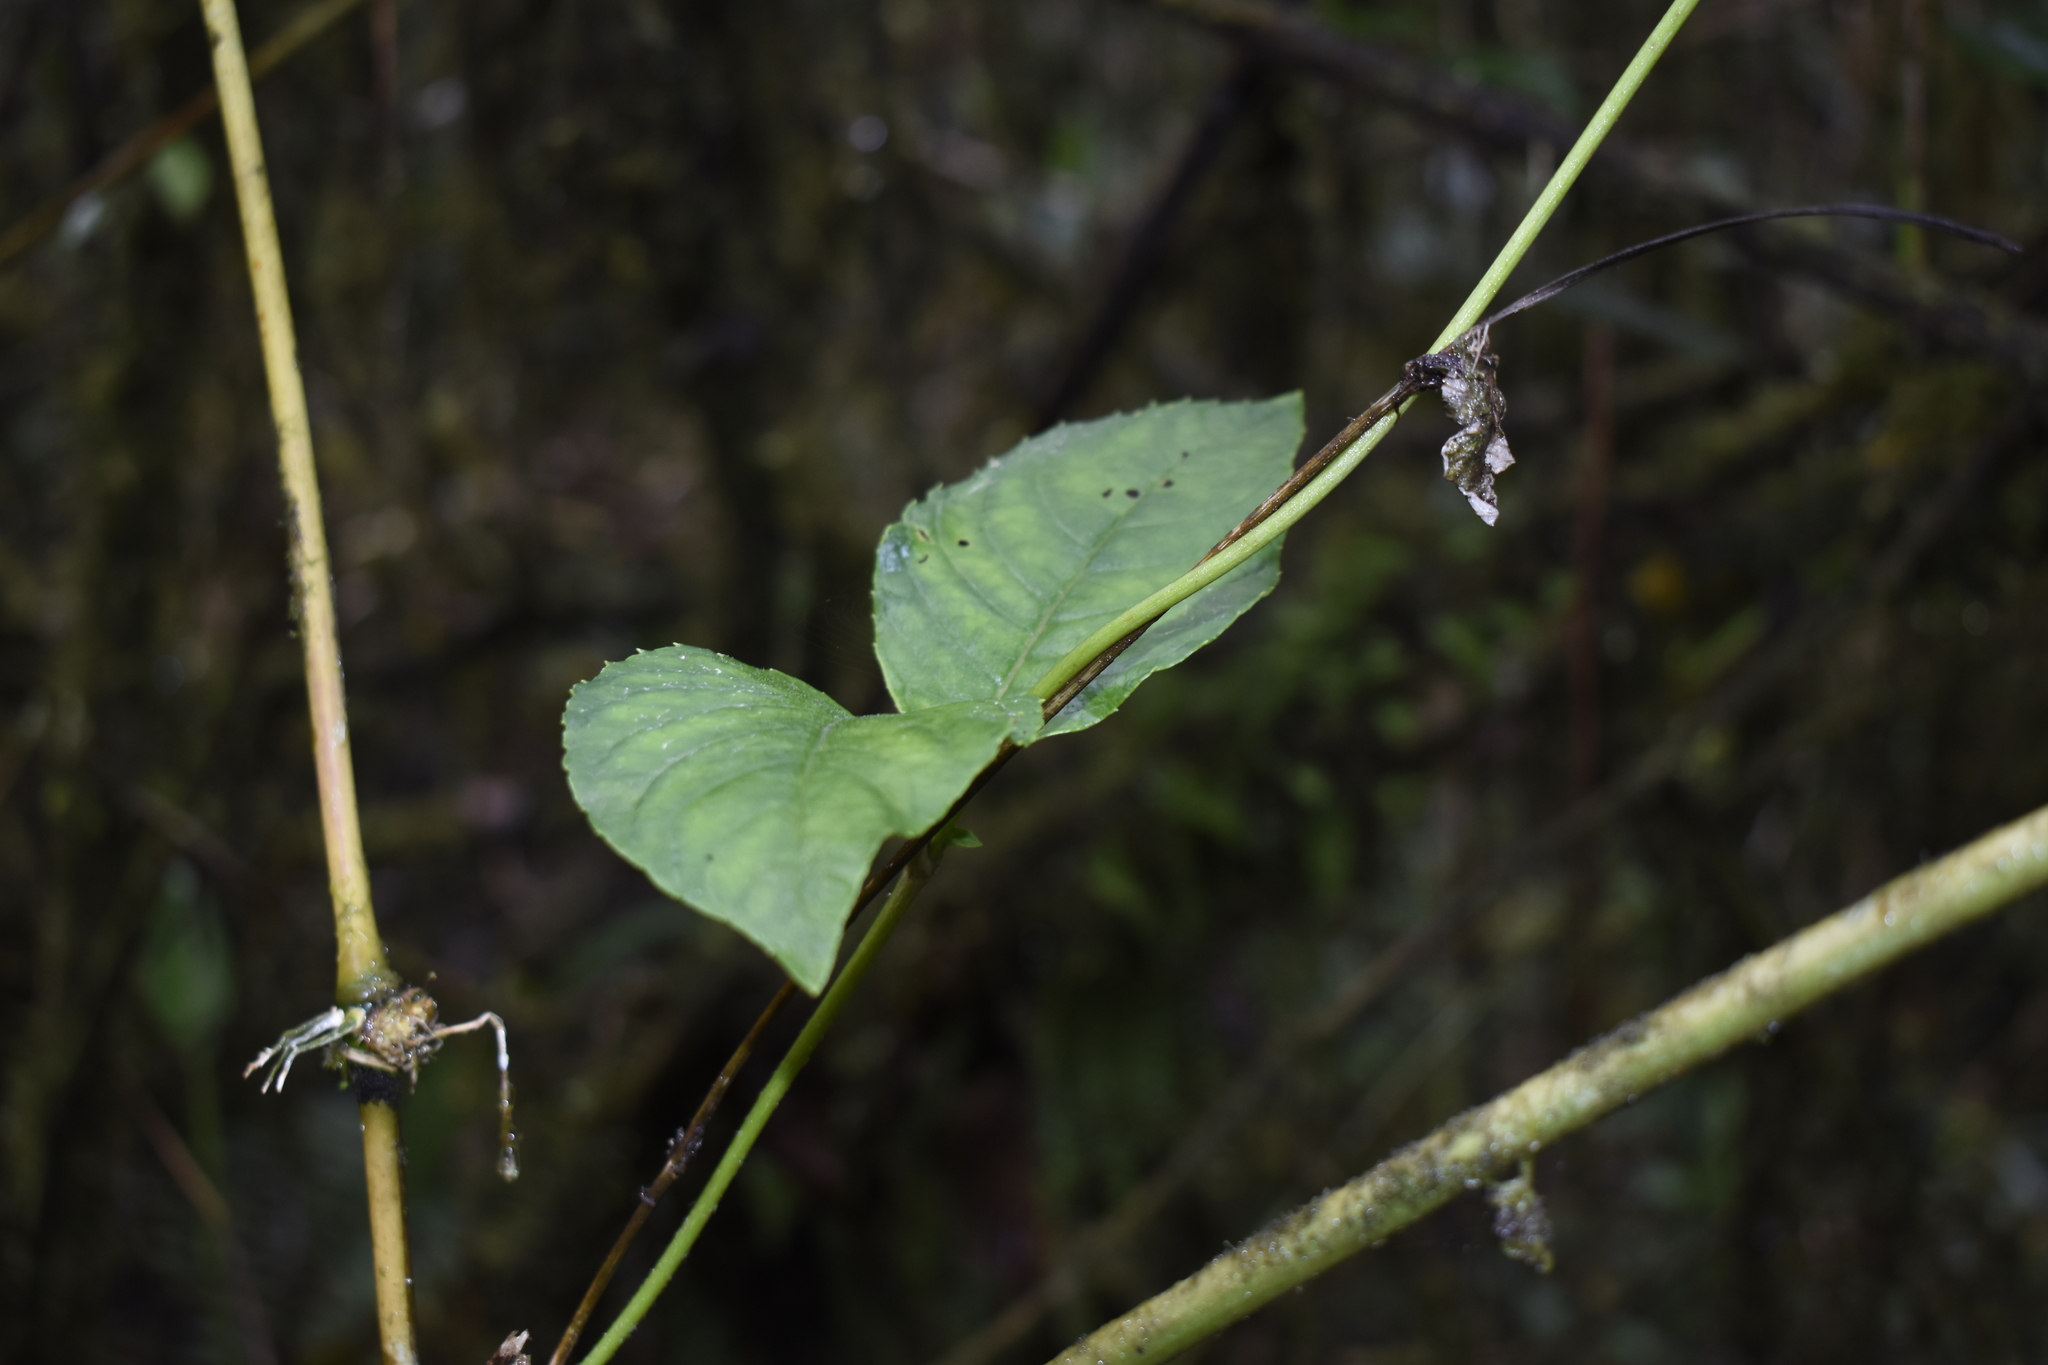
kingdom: Plantae
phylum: Tracheophyta
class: Magnoliopsida
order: Lamiales
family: Gesneriaceae
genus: Columnea
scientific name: Columnea strigosa
